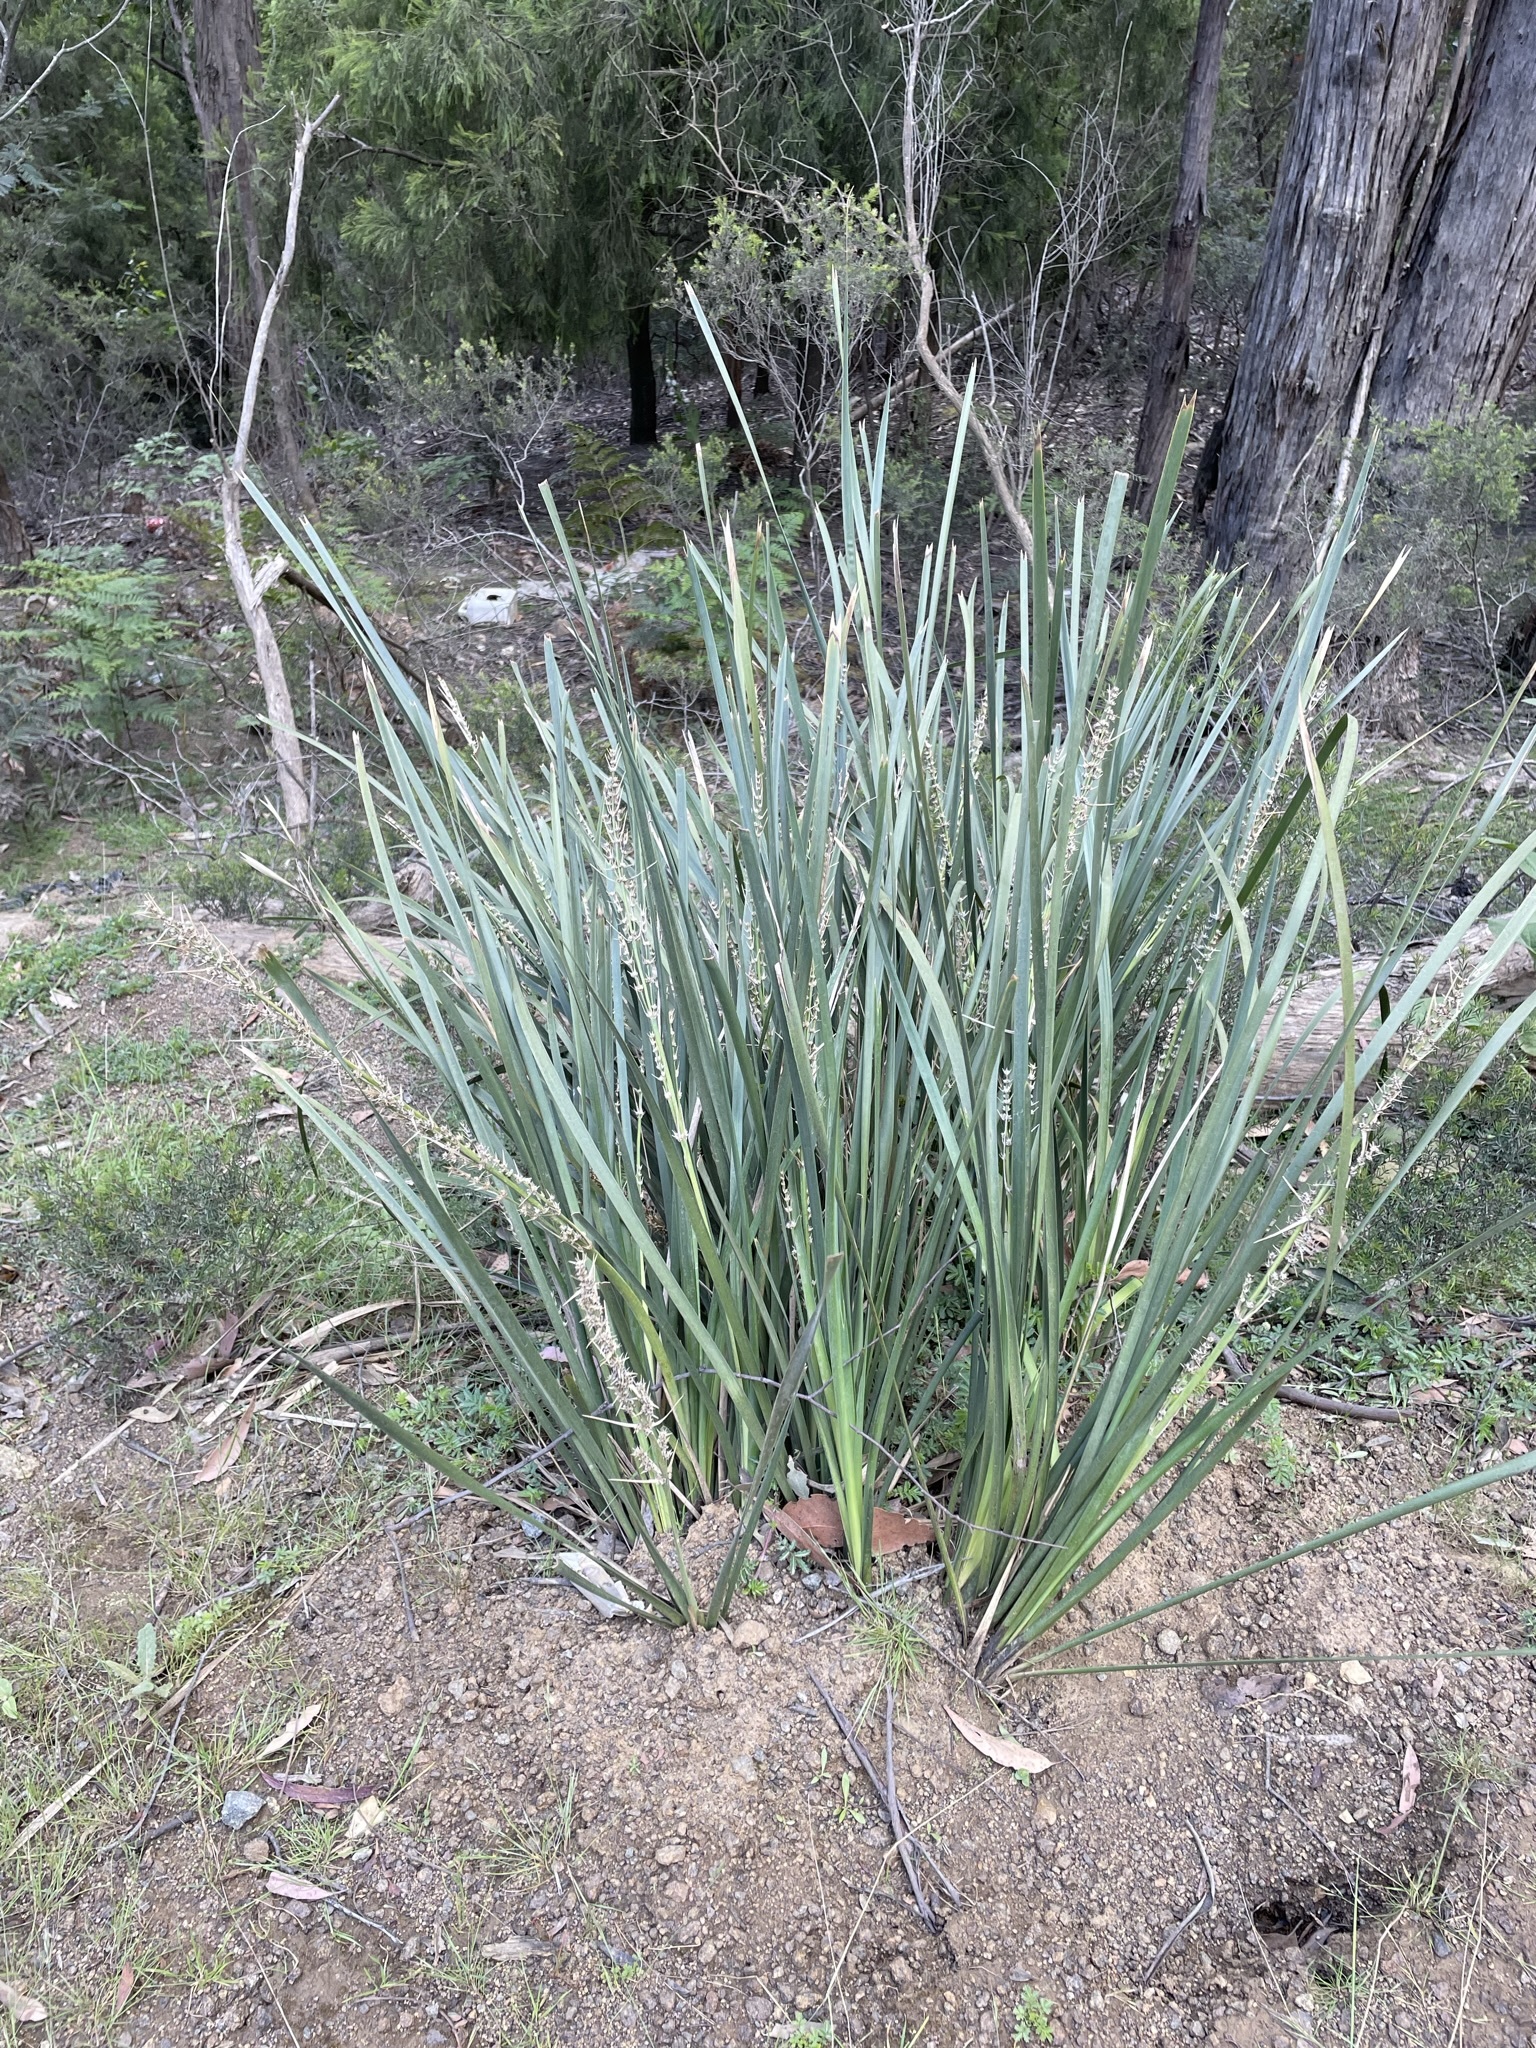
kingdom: Plantae
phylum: Tracheophyta
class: Liliopsida
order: Asparagales
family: Asparagaceae
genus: Lomandra
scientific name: Lomandra longifolia
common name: Longleaf mat-rush
